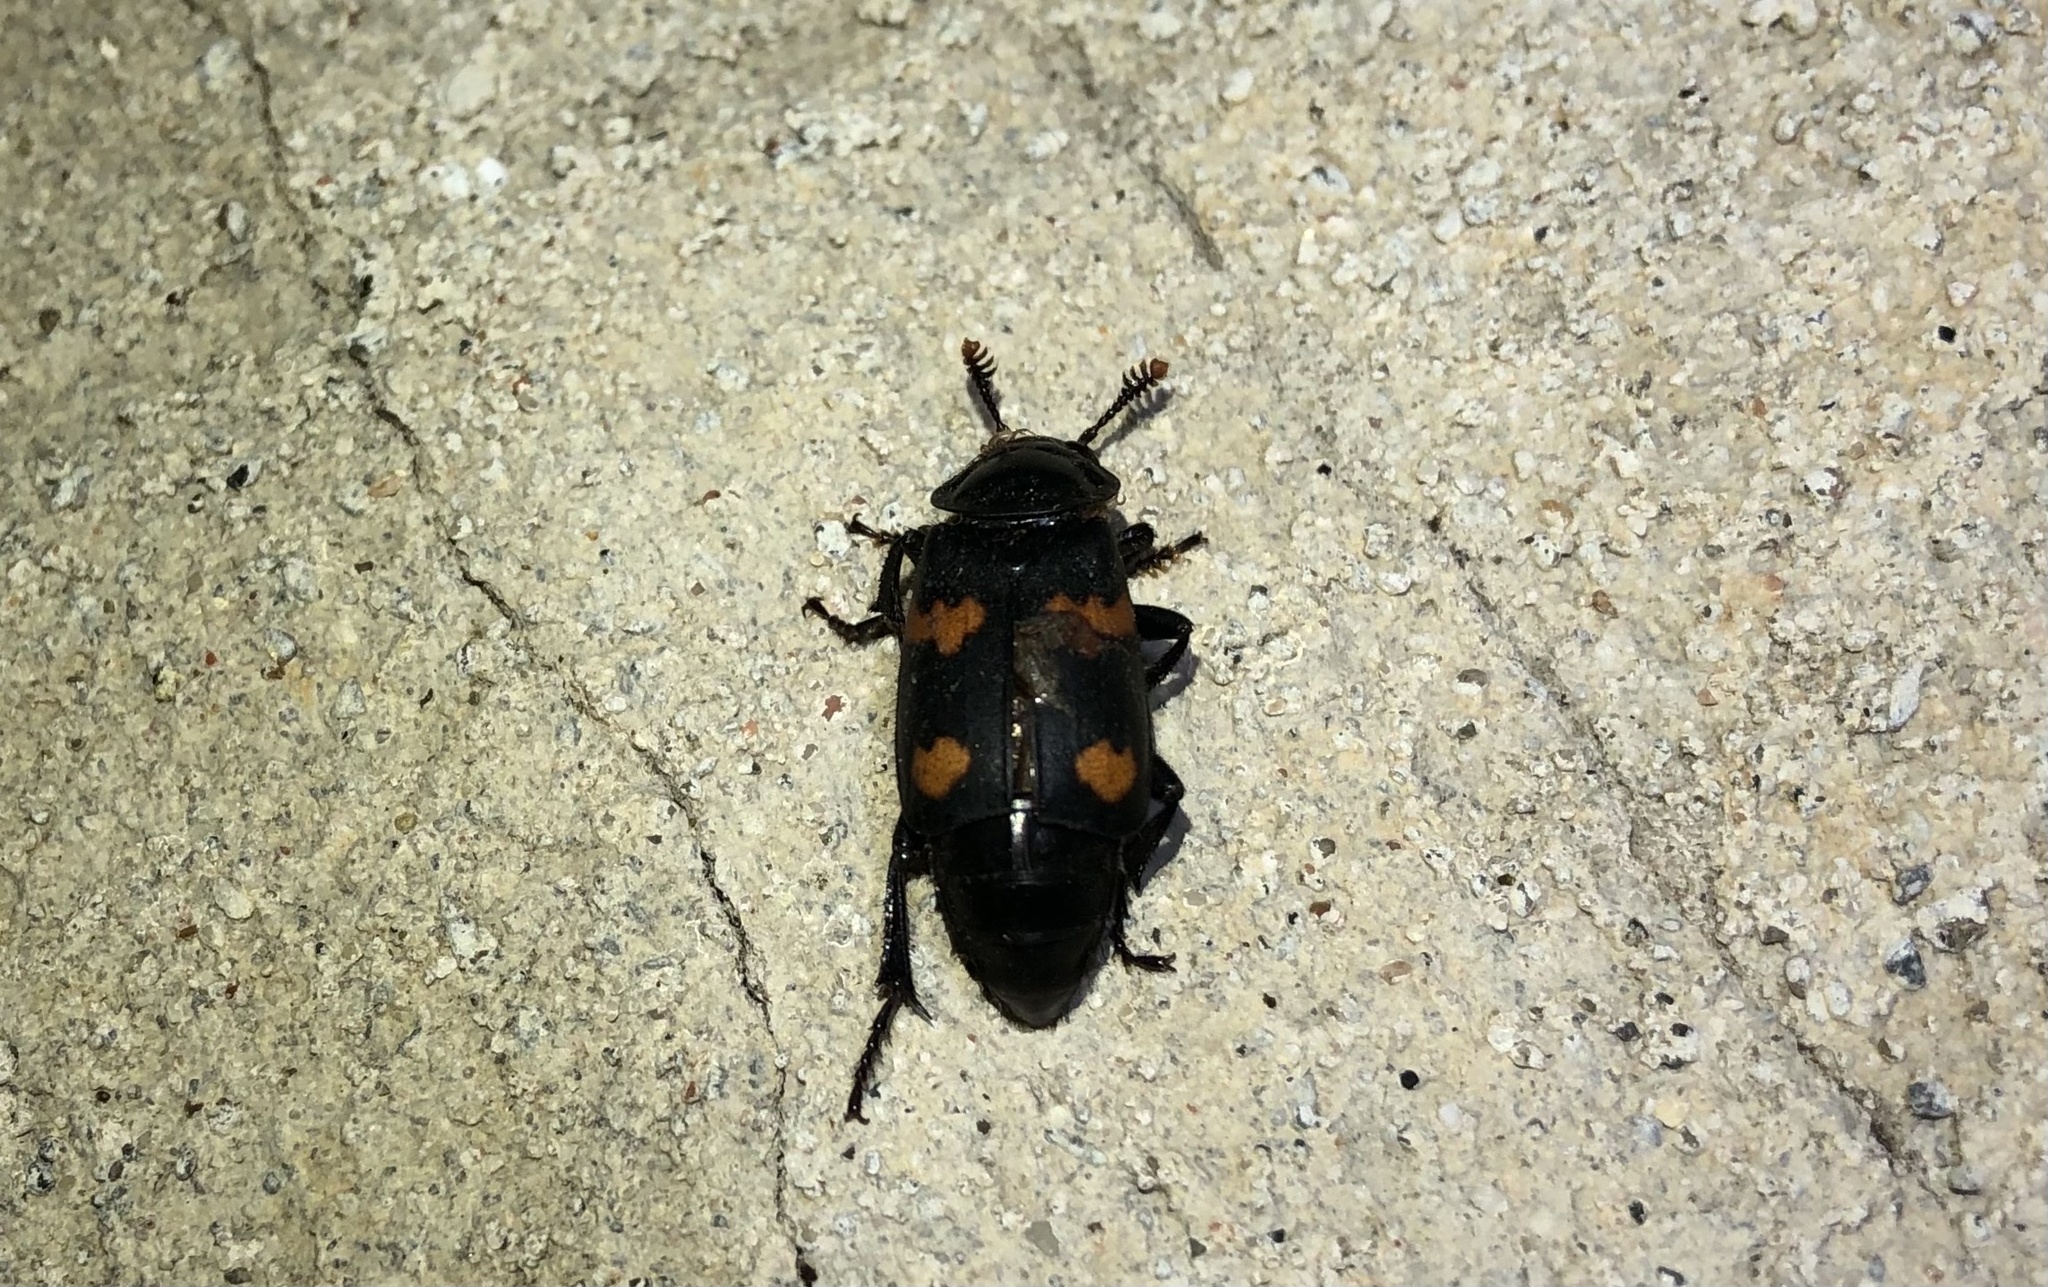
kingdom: Animalia
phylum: Arthropoda
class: Insecta
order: Coleoptera
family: Staphylinidae
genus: Nicrophorus
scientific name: Nicrophorus orbicollis
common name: Roundneck sexton beetle
